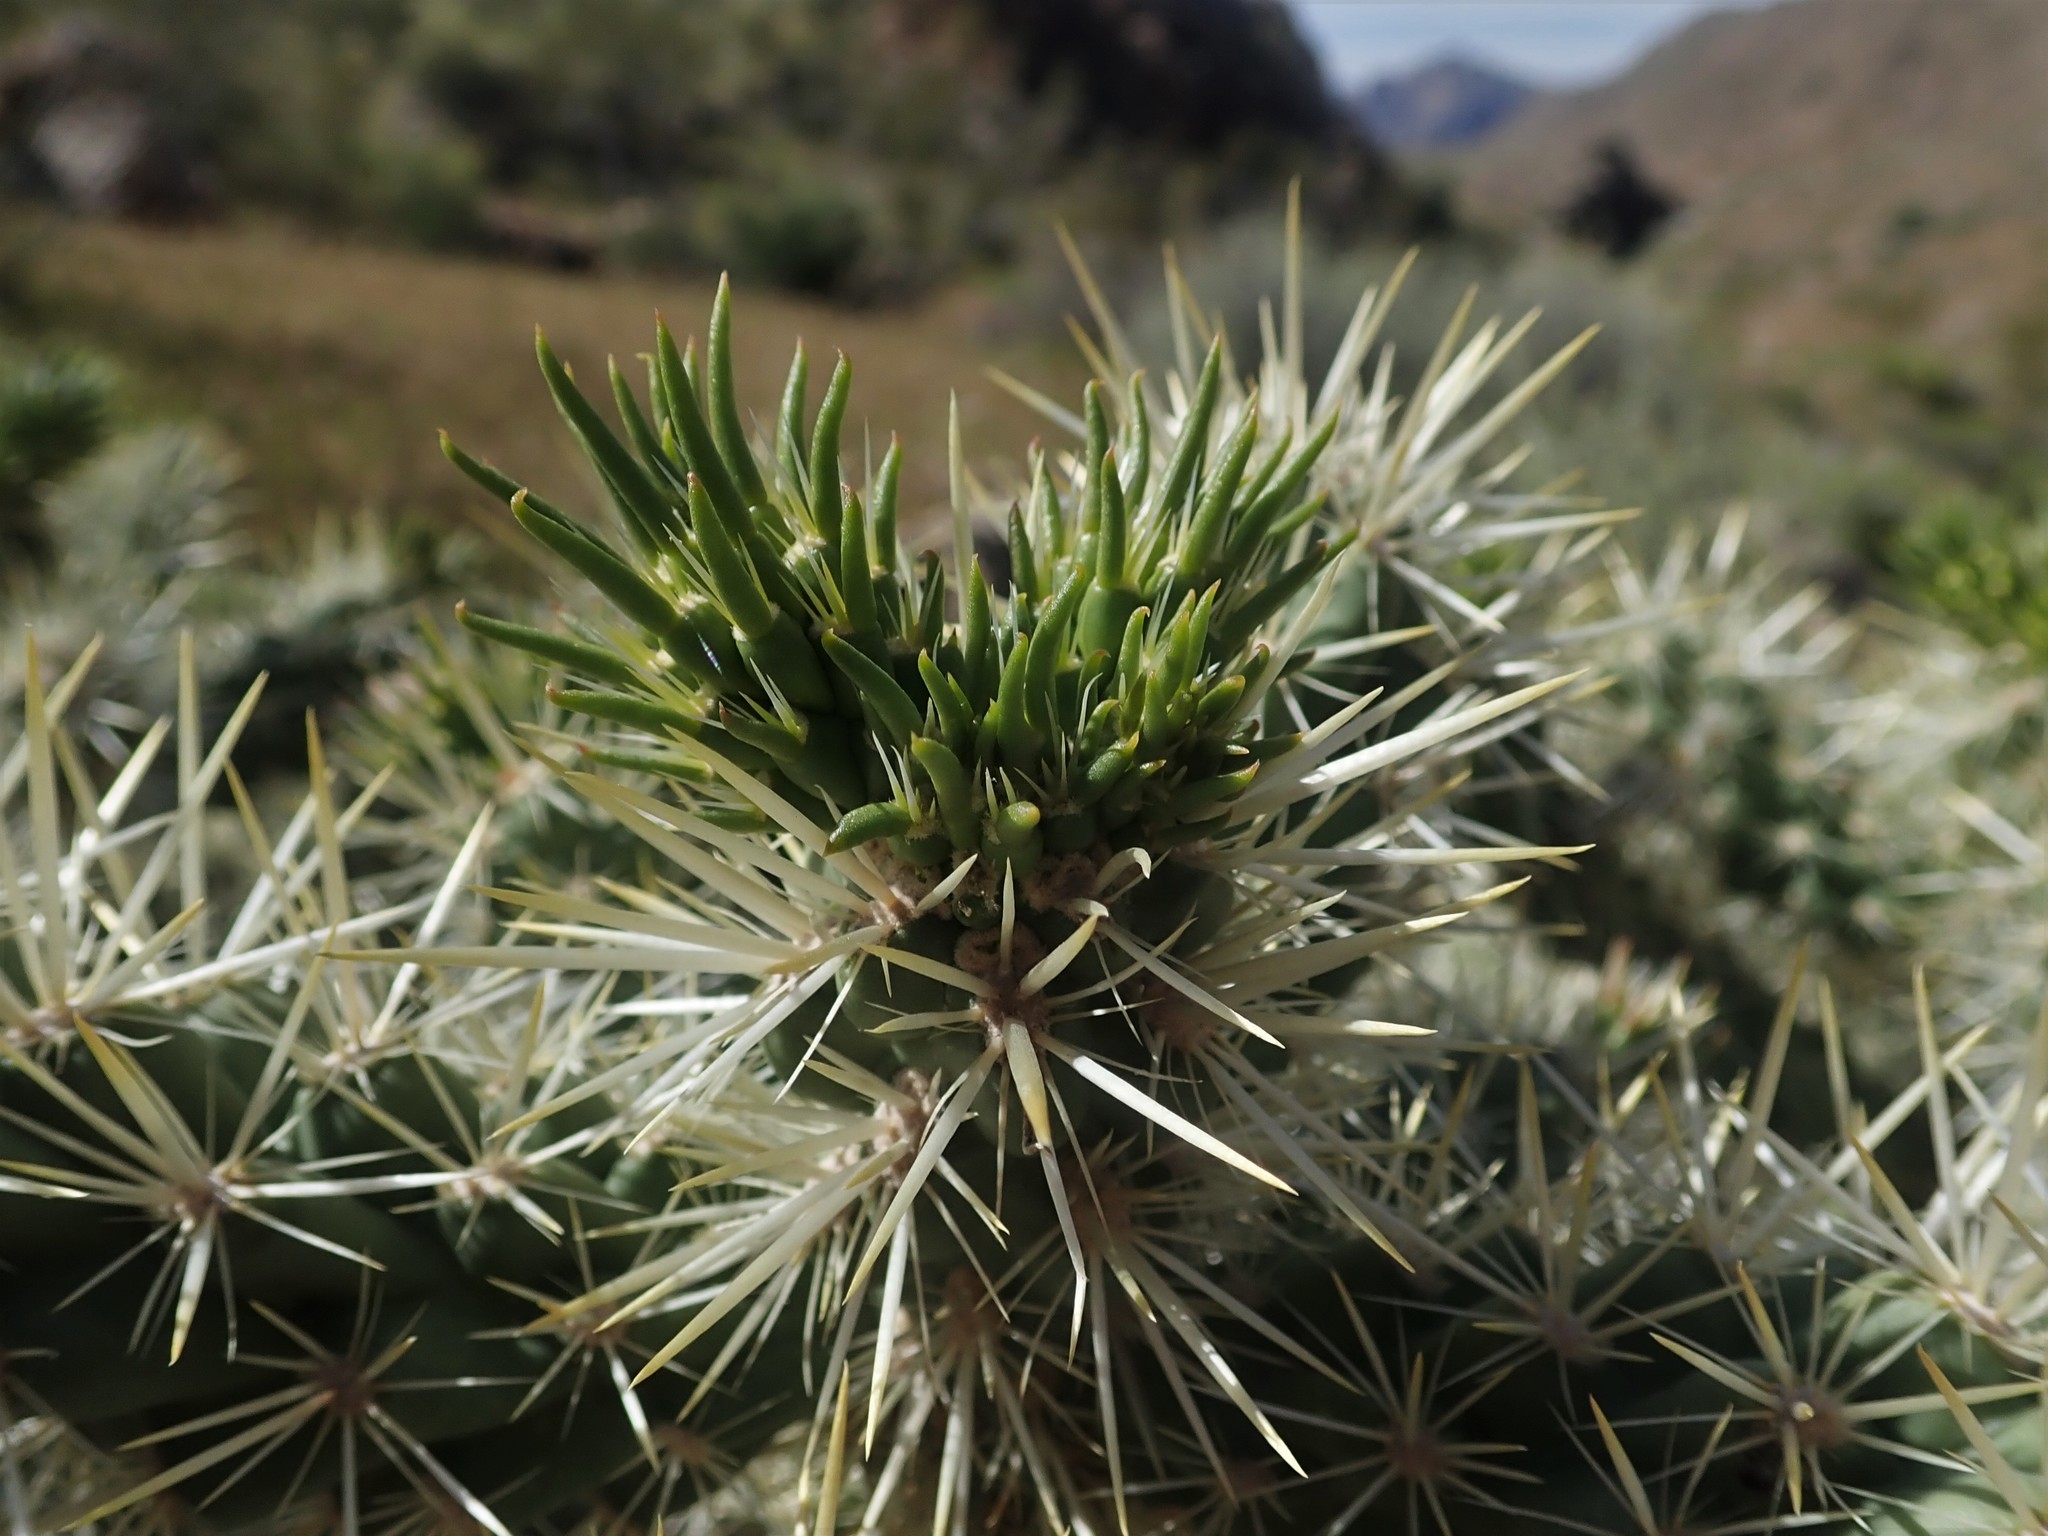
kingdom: Plantae
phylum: Tracheophyta
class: Magnoliopsida
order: Caryophyllales
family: Cactaceae
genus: Cylindropuntia
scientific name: Cylindropuntia echinocarpa
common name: Ground cholla
